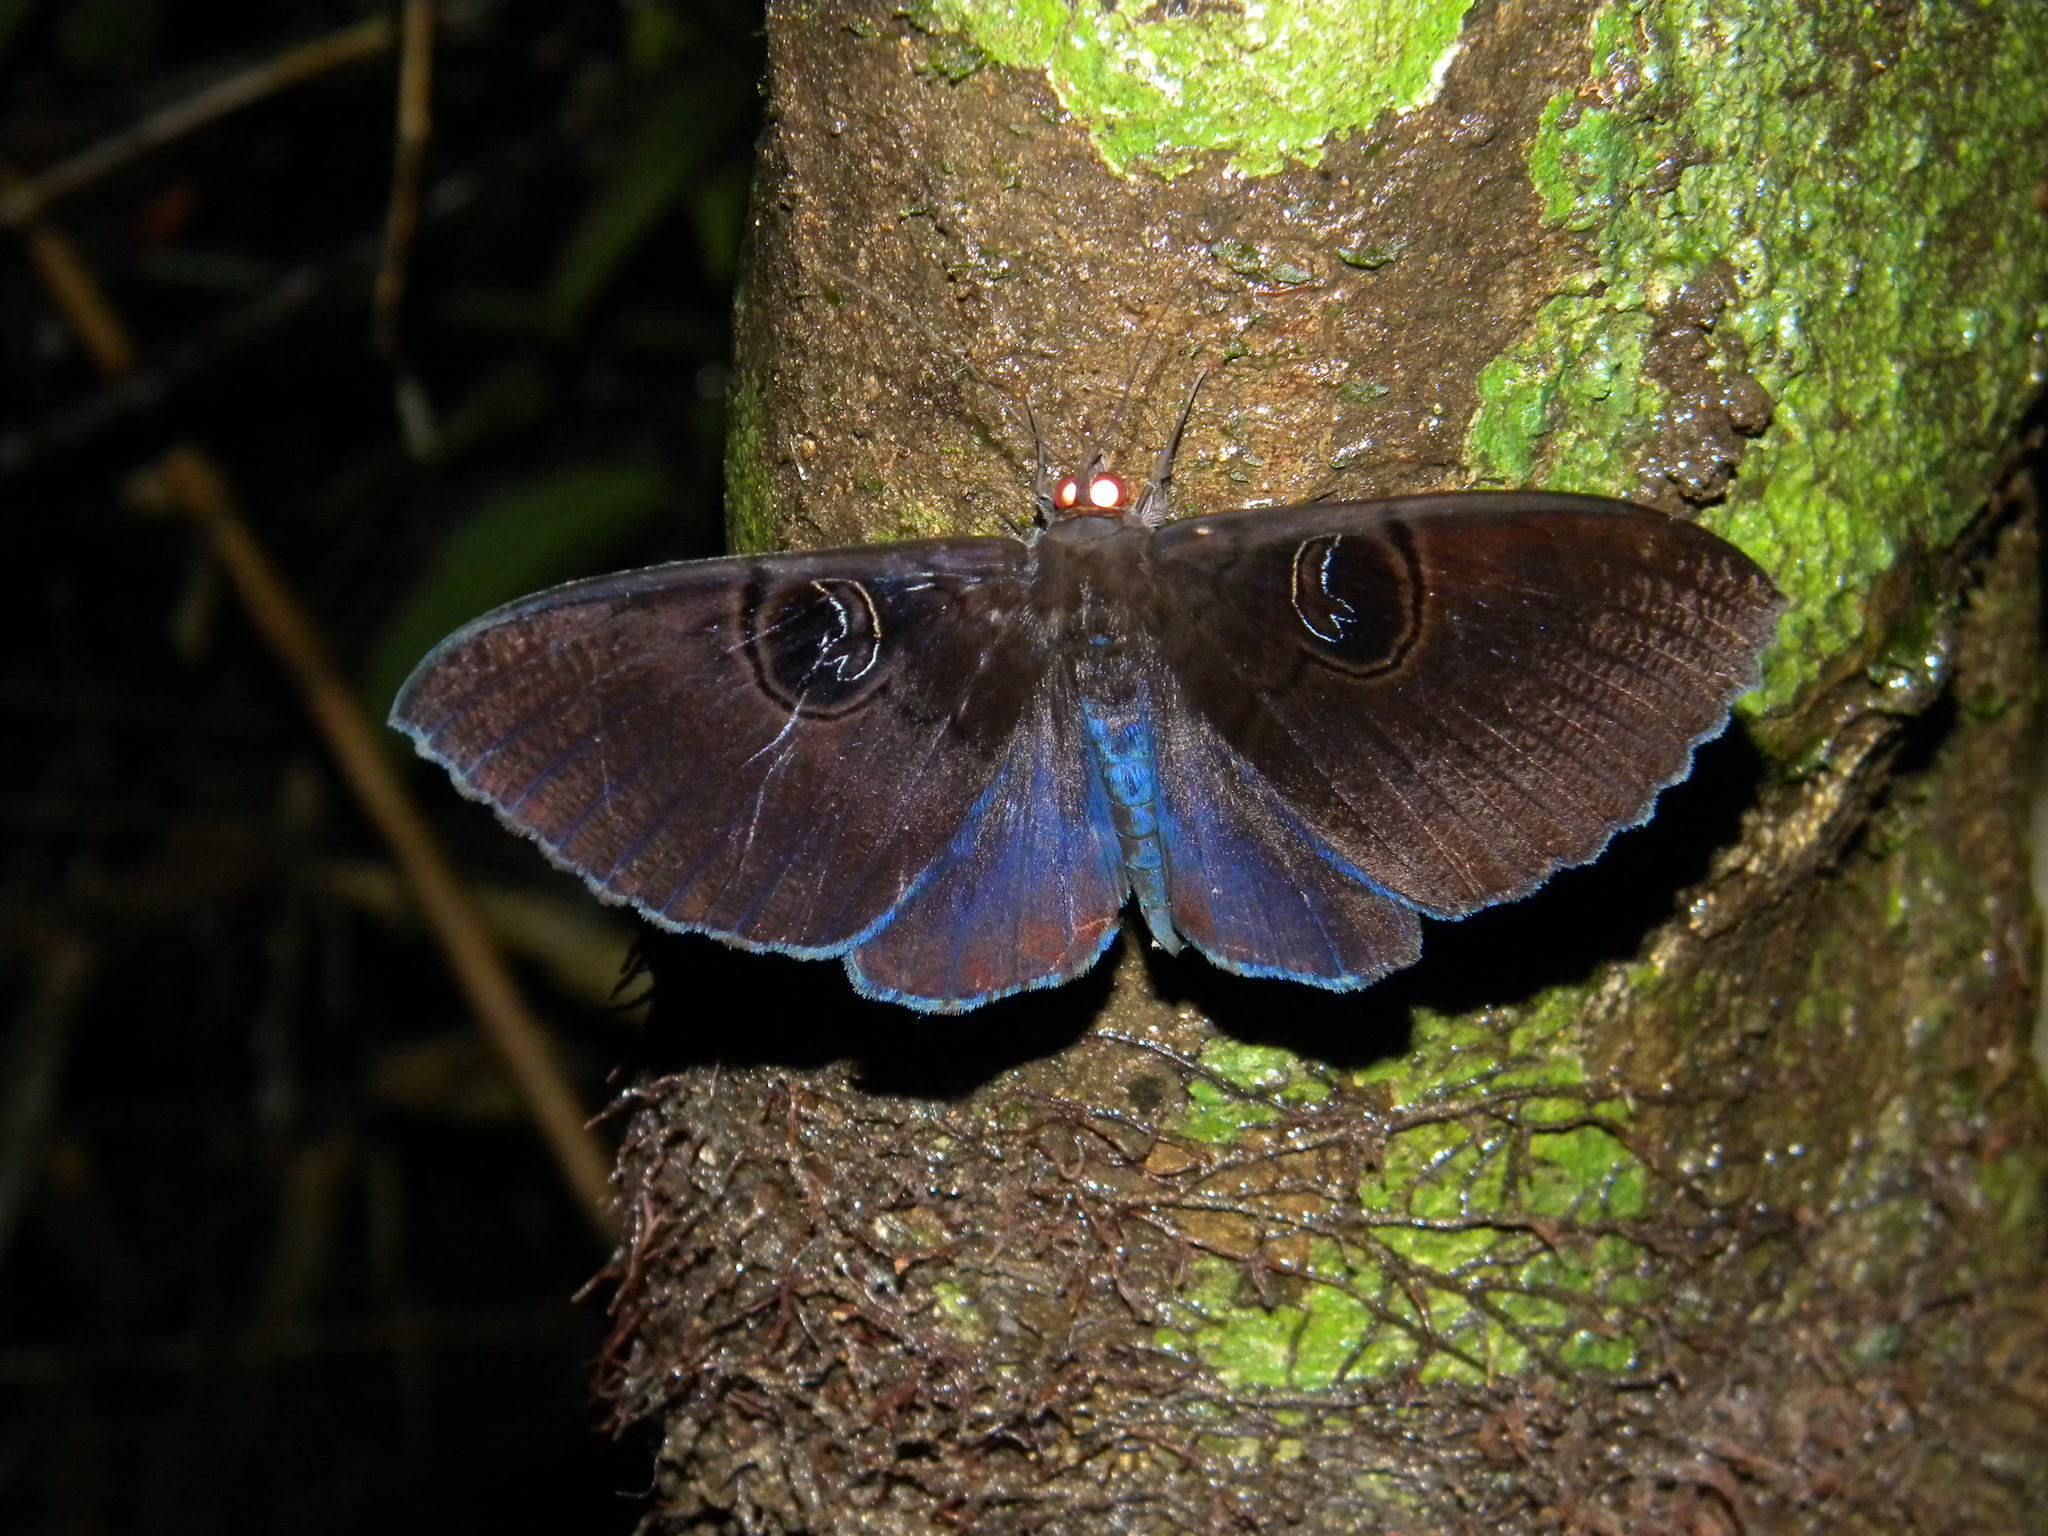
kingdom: Animalia
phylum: Arthropoda
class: Insecta
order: Lepidoptera
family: Erebidae
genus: Erebus
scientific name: Erebus caprimulgus
